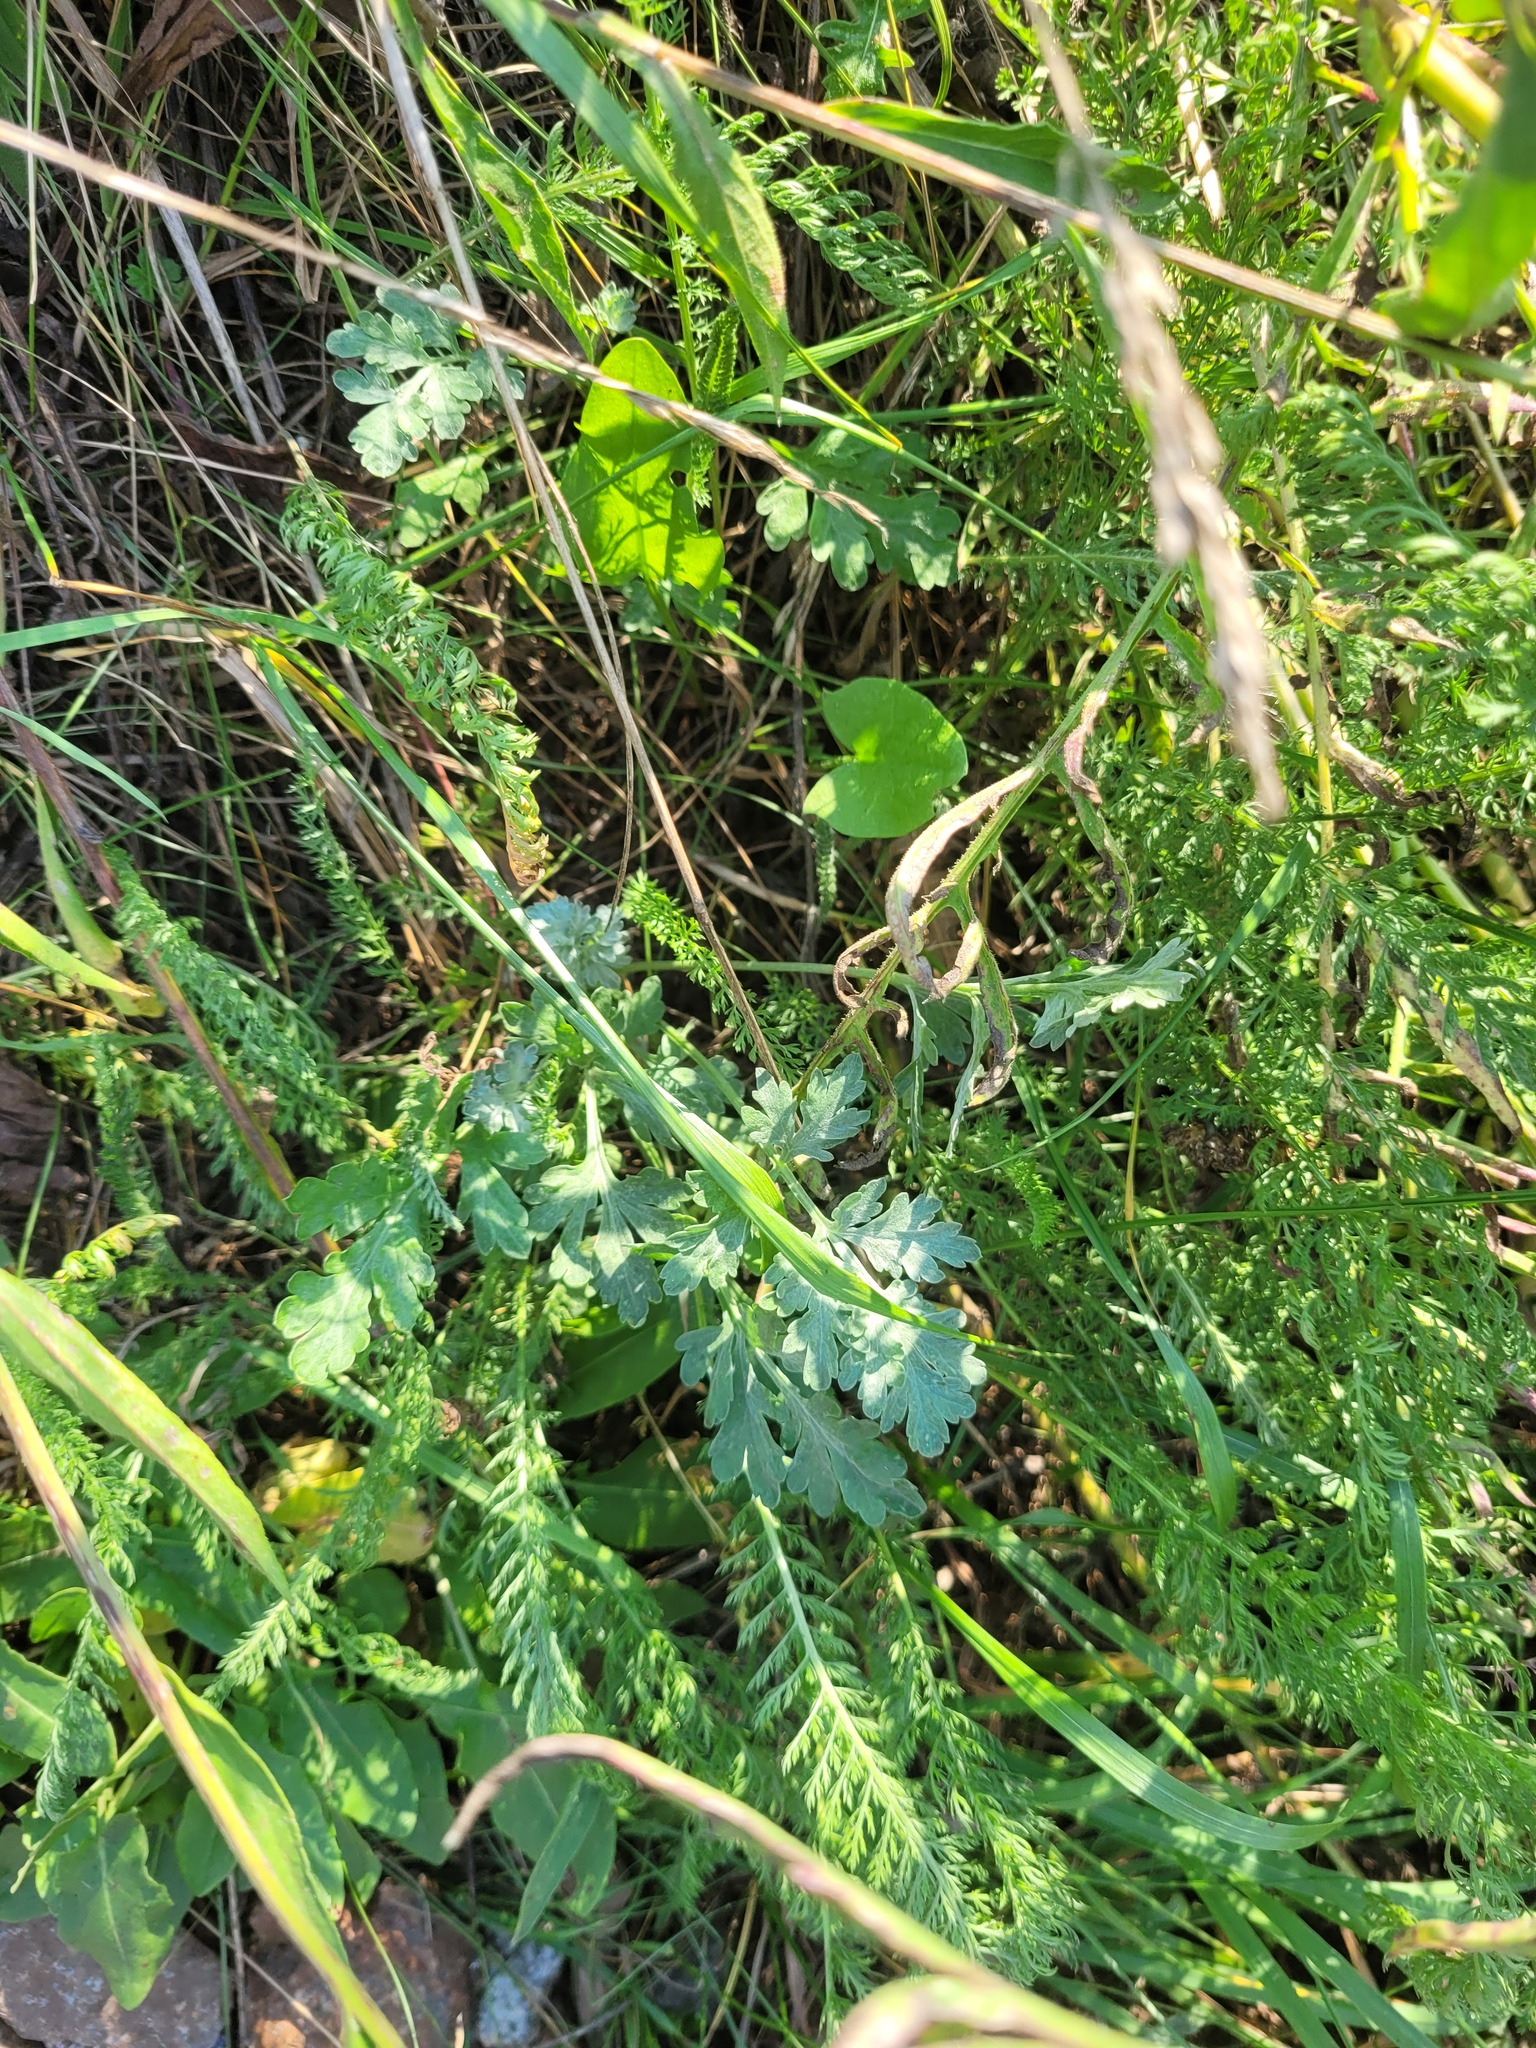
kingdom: Plantae
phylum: Tracheophyta
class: Magnoliopsida
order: Asterales
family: Asteraceae
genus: Artemisia
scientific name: Artemisia absinthium
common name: Wormwood
